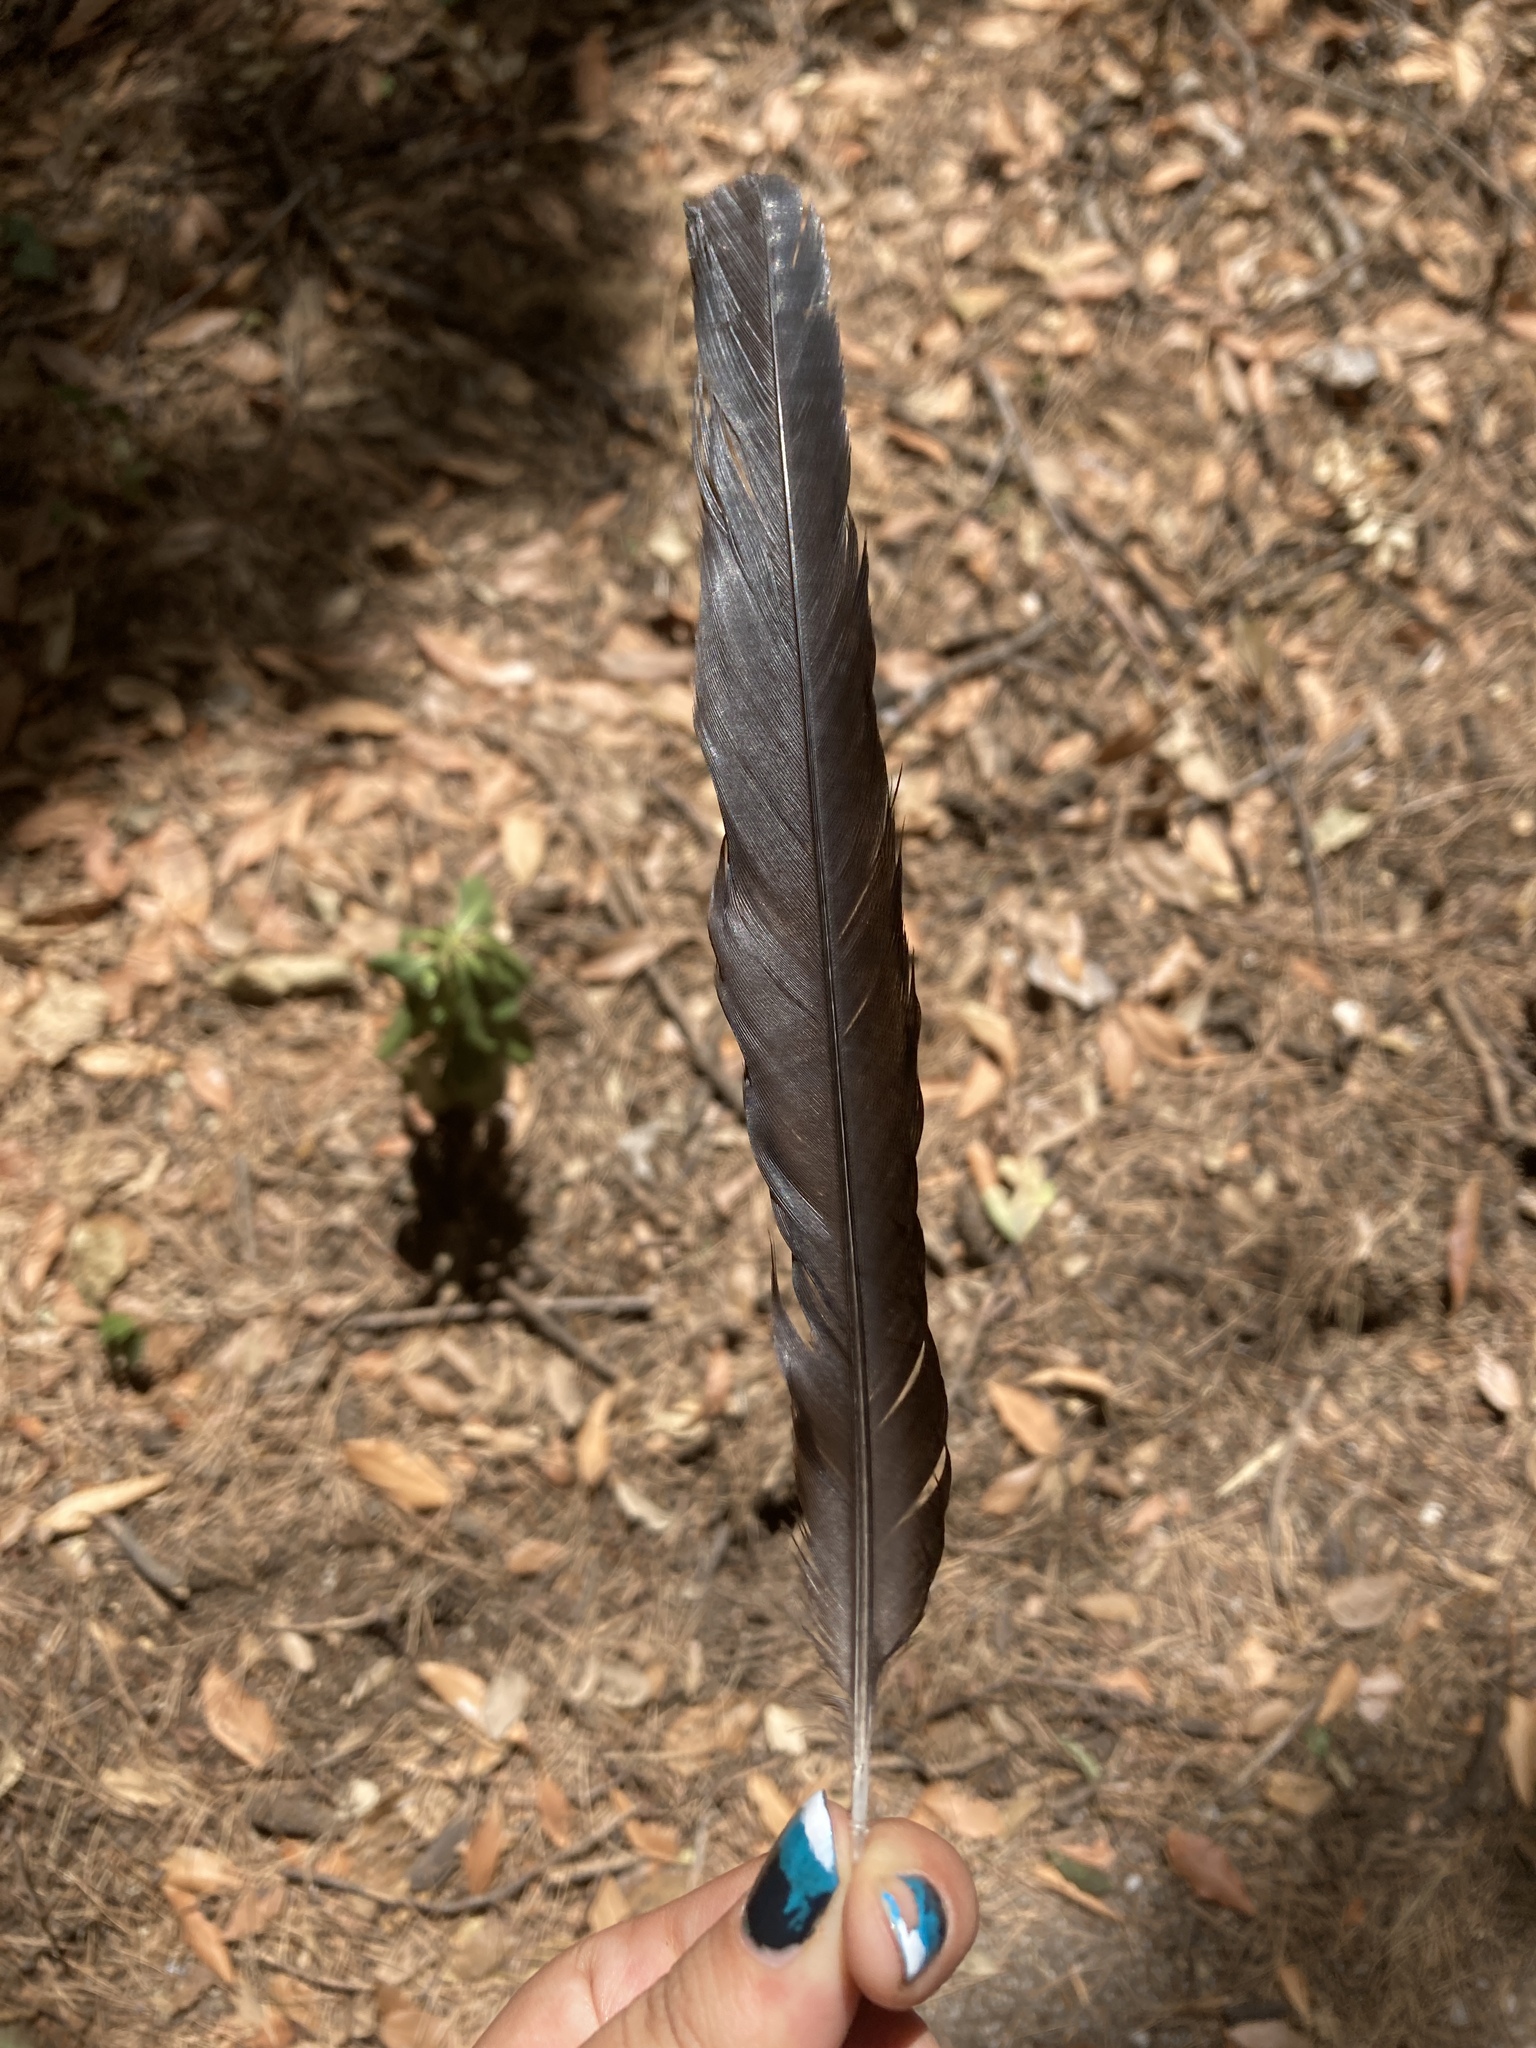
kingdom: Animalia
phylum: Chordata
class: Aves
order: Passeriformes
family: Corvidae
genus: Pica
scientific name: Pica pica
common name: Eurasian magpie
